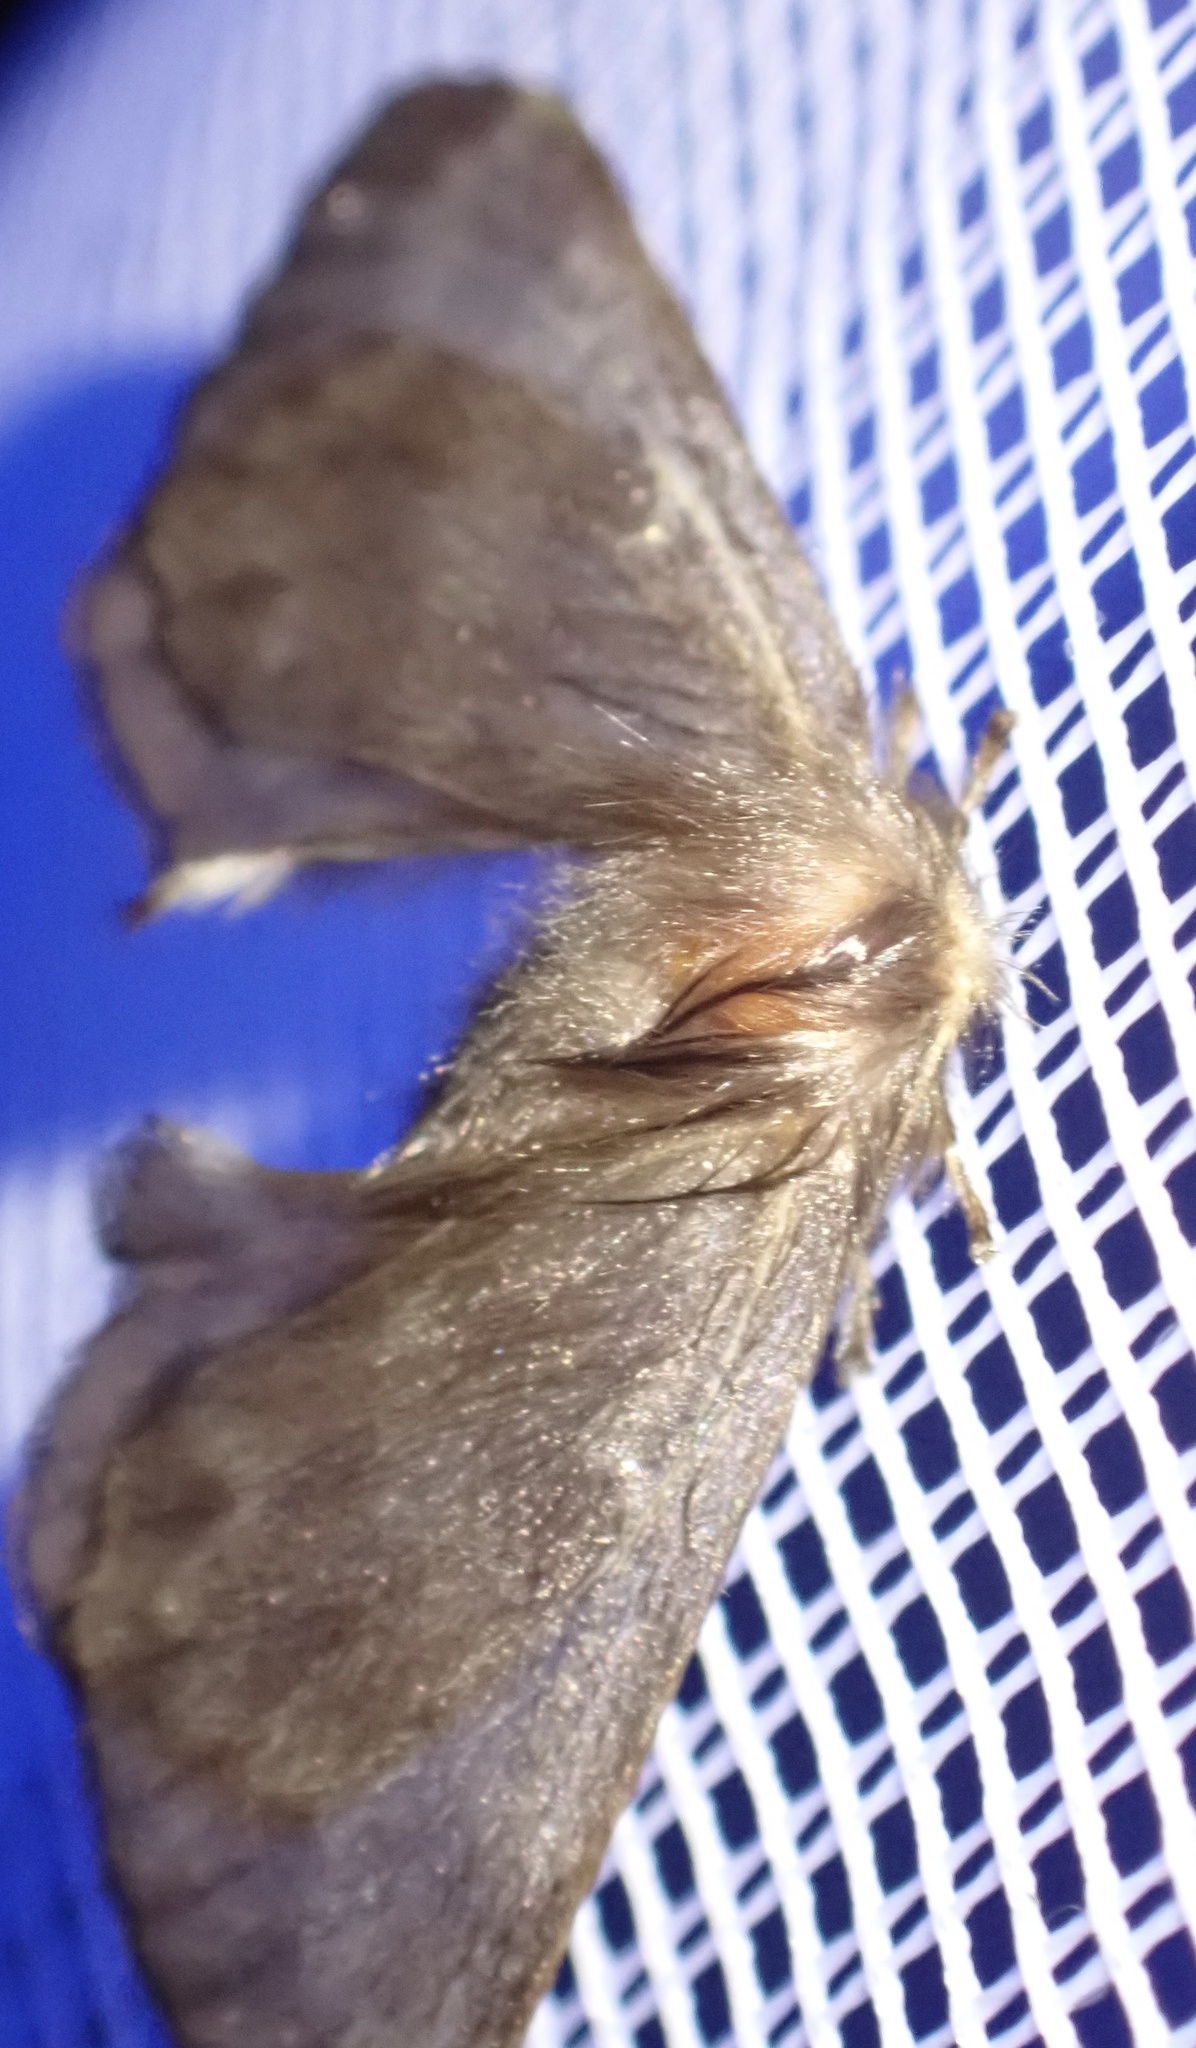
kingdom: Animalia
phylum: Arthropoda
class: Insecta
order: Lepidoptera
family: Eupterotidae
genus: Panacela
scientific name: Panacela lewinae
